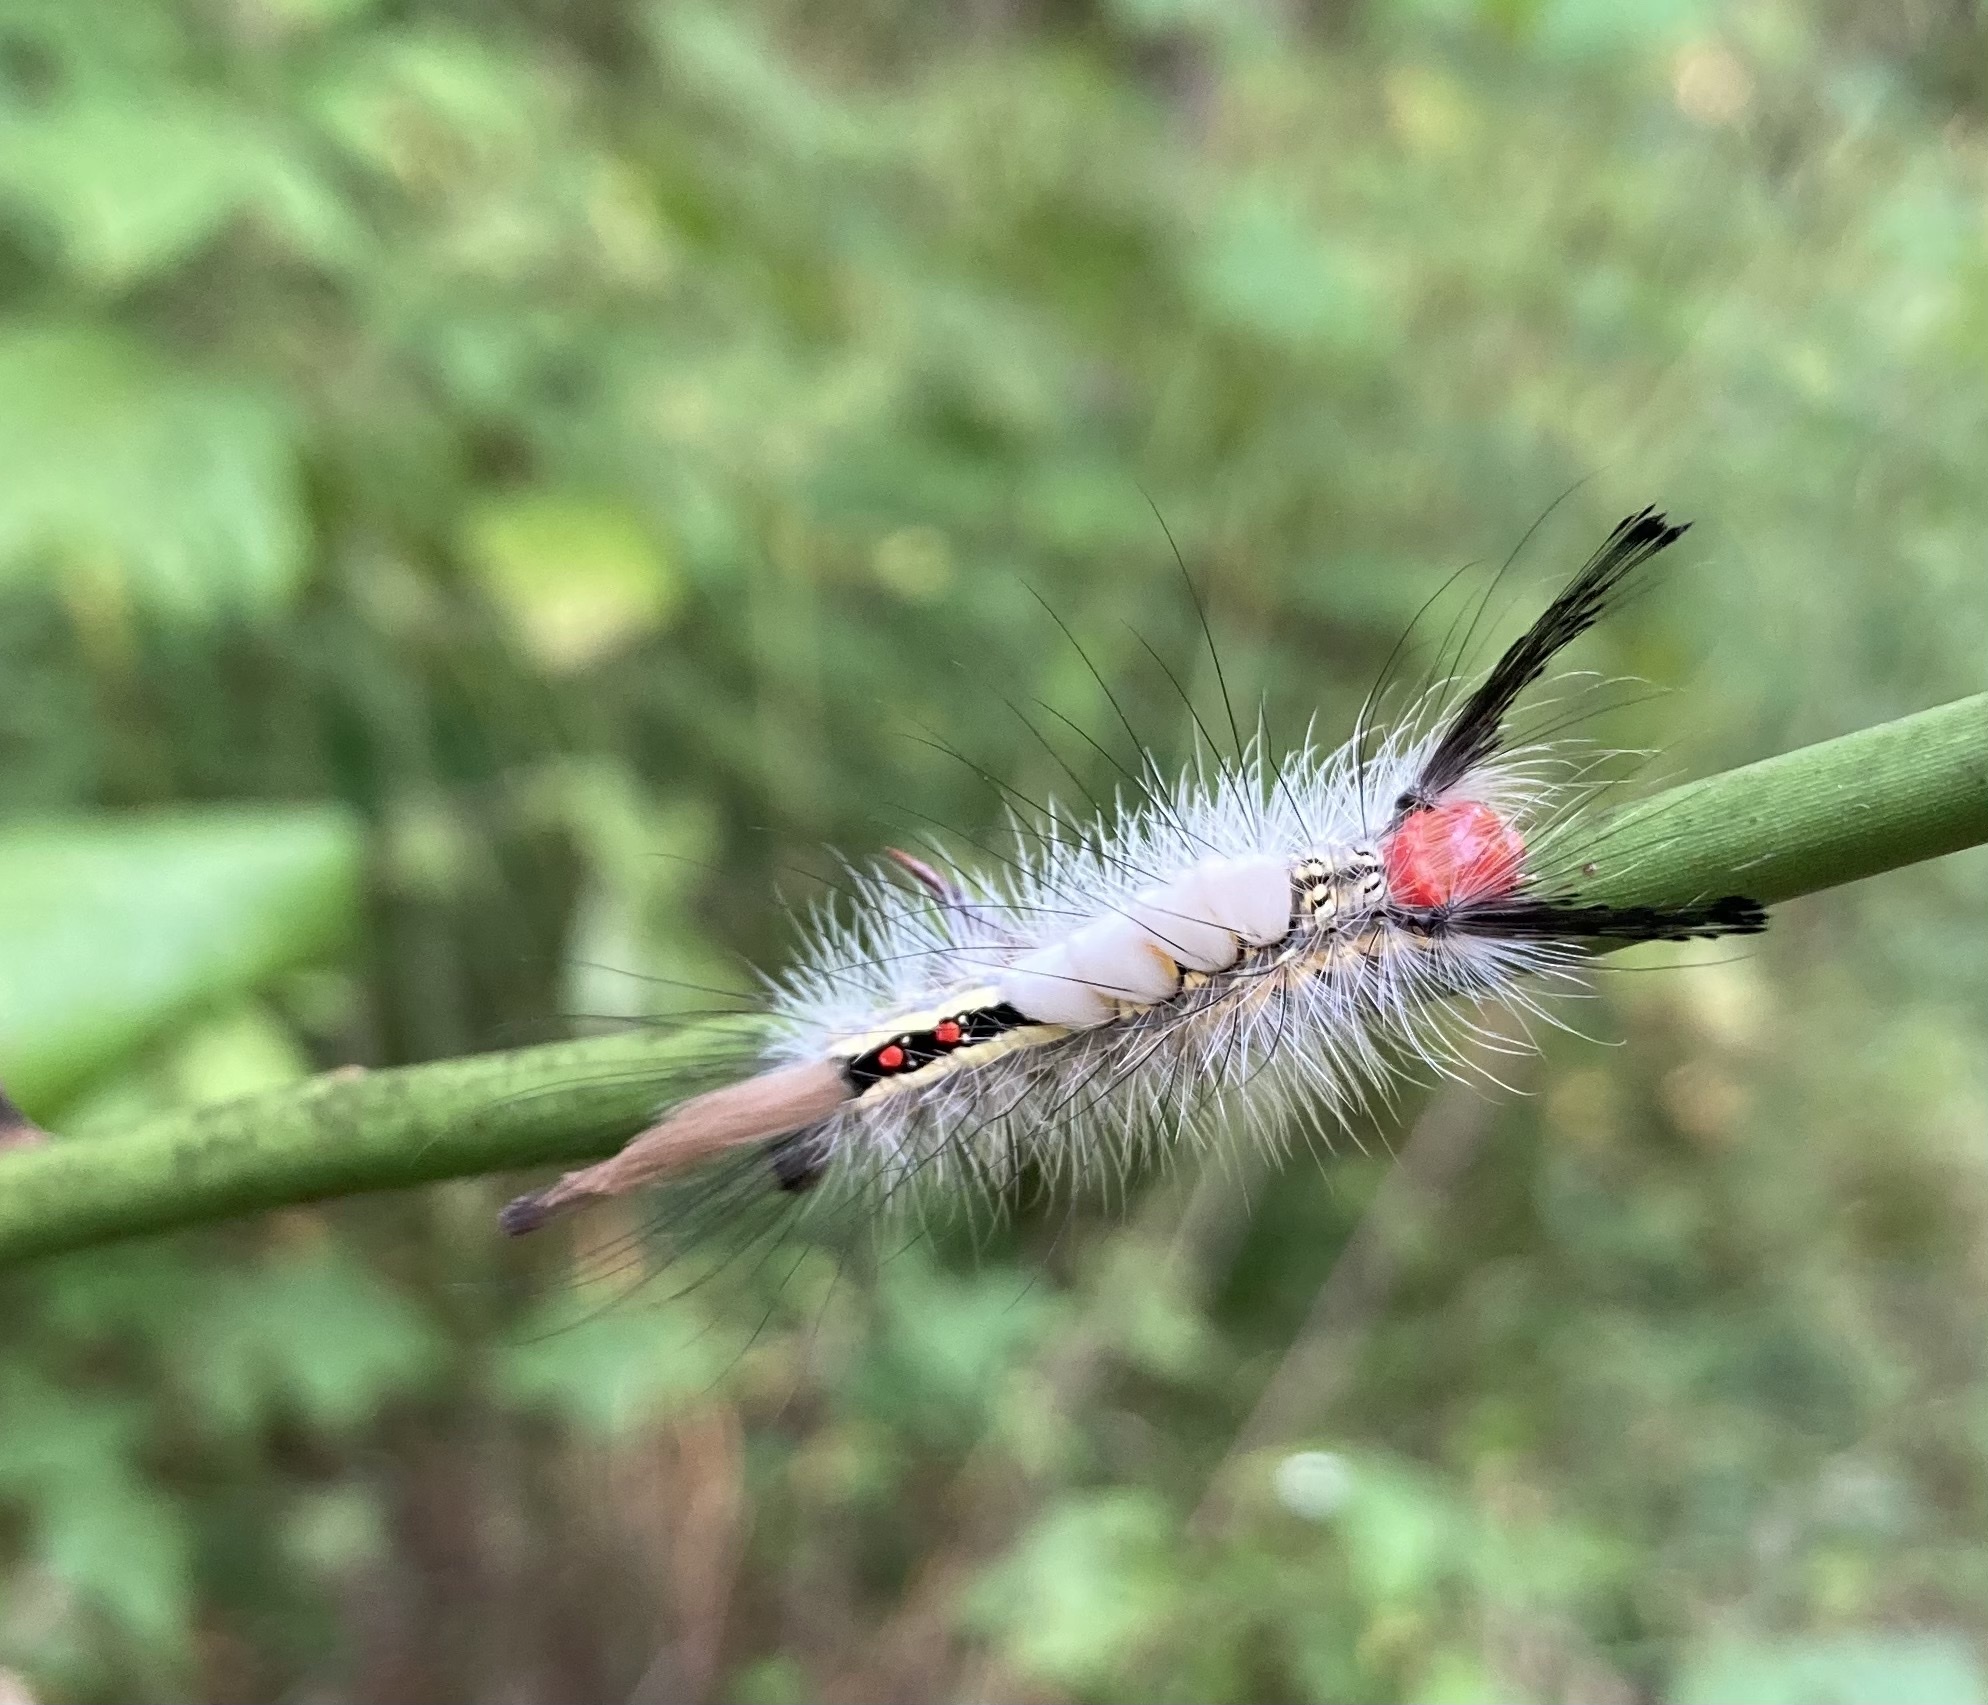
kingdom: Animalia
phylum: Arthropoda
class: Insecta
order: Lepidoptera
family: Erebidae
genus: Orgyia
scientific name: Orgyia leucostigma
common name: White-marked tussock moth
